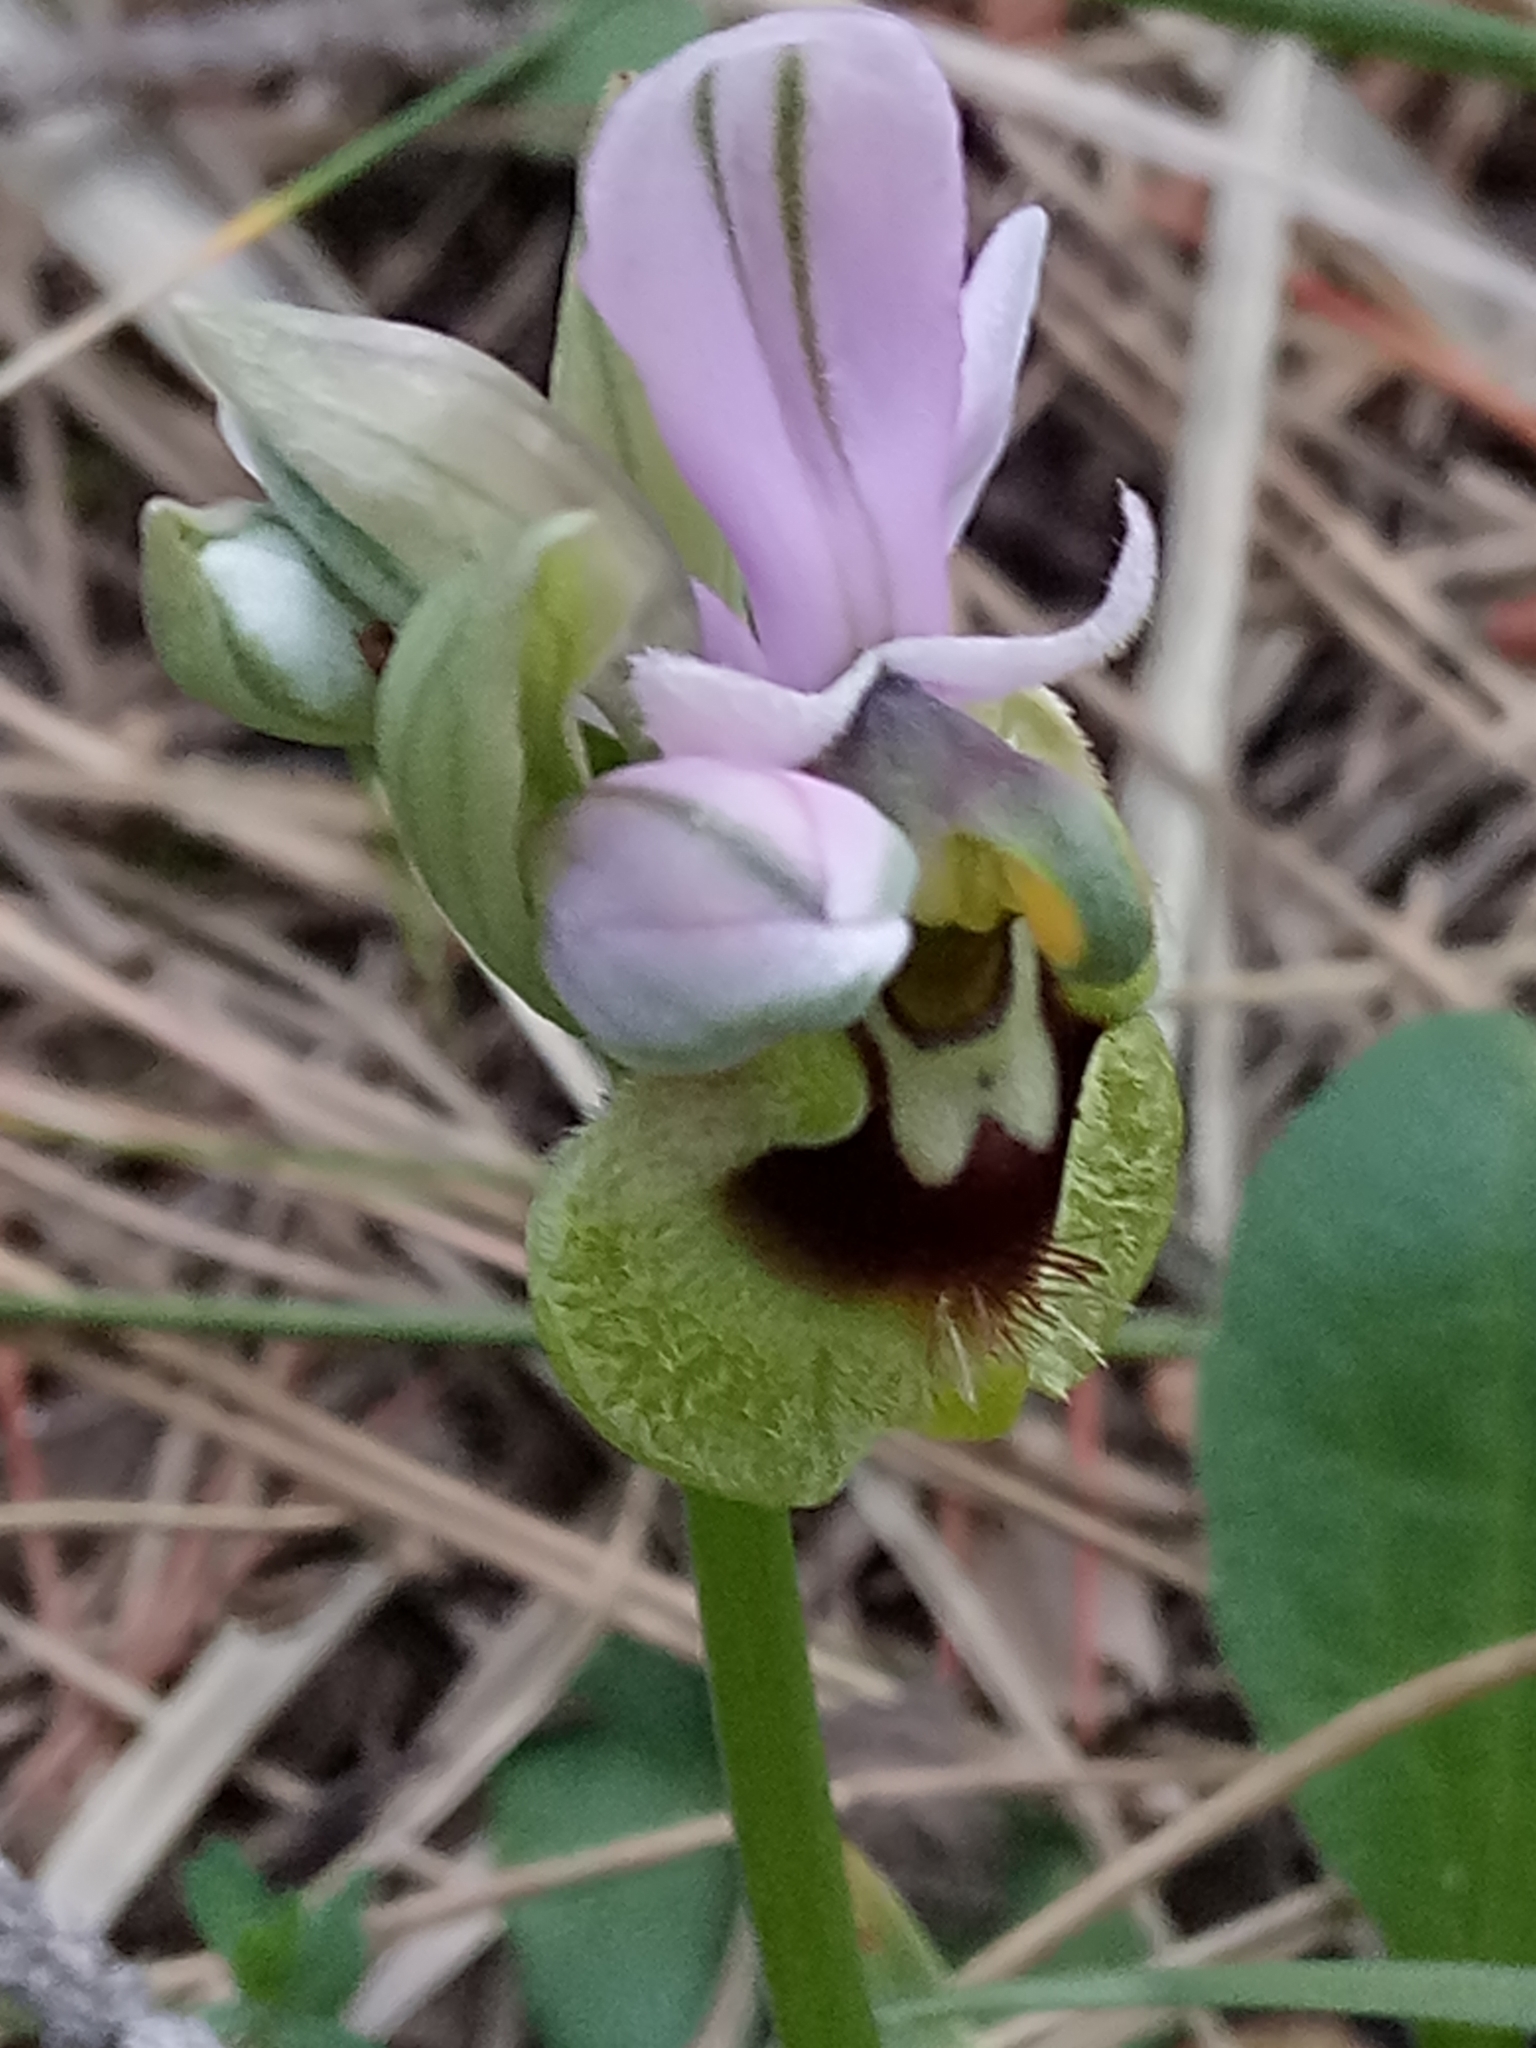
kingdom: Plantae
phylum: Tracheophyta
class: Liliopsida
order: Asparagales
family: Orchidaceae
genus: Ophrys
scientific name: Ophrys tenthredinifera
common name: Sawfly orchid
